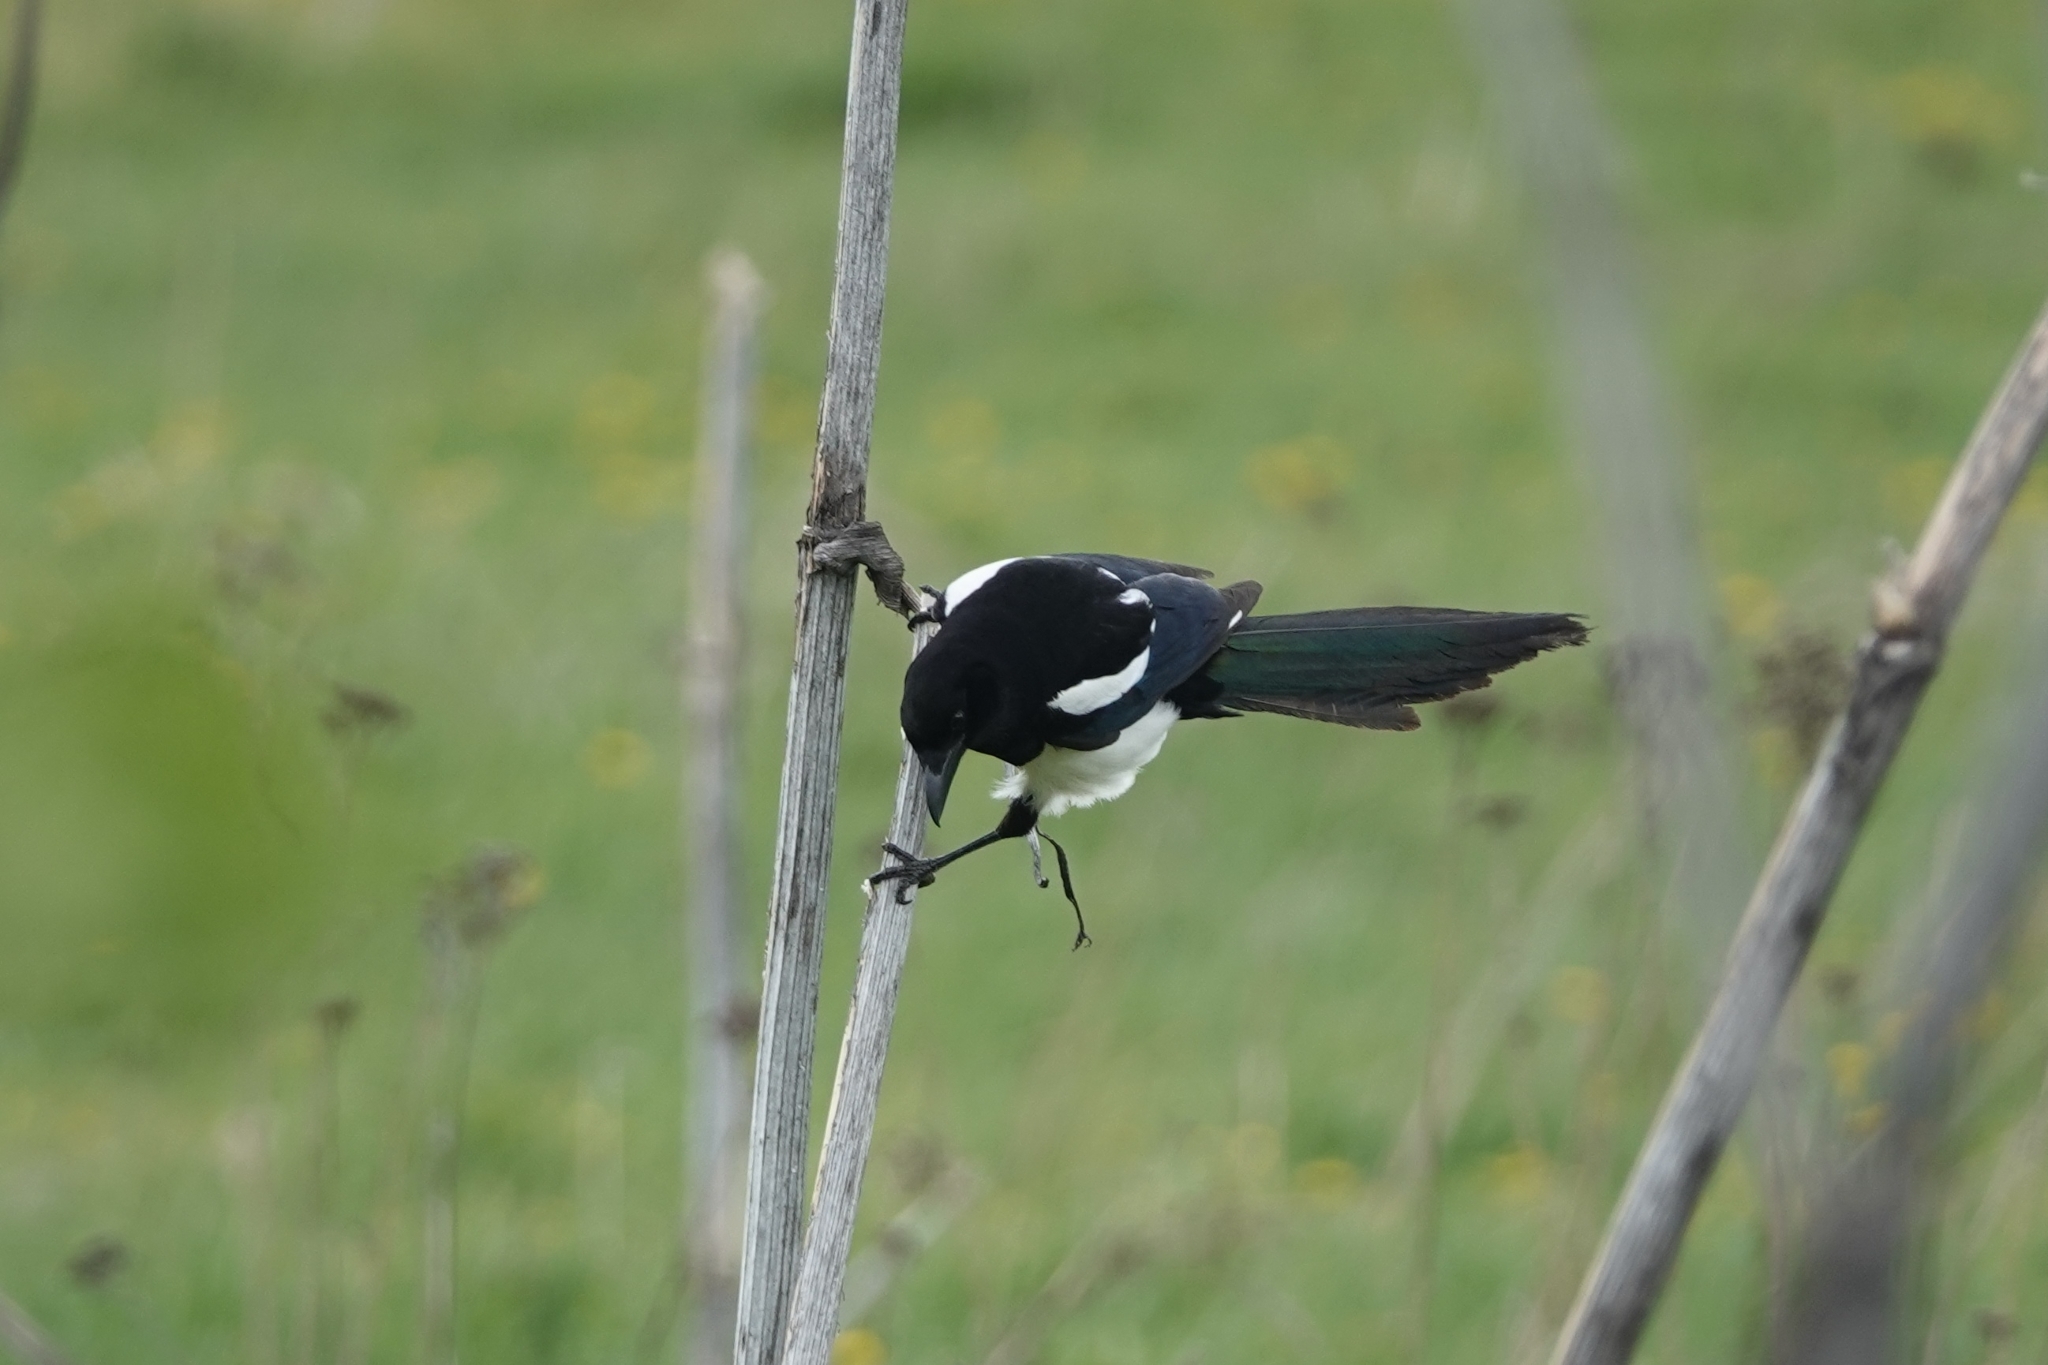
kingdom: Animalia
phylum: Chordata
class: Aves
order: Passeriformes
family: Corvidae
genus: Pica
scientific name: Pica pica
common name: Eurasian magpie
